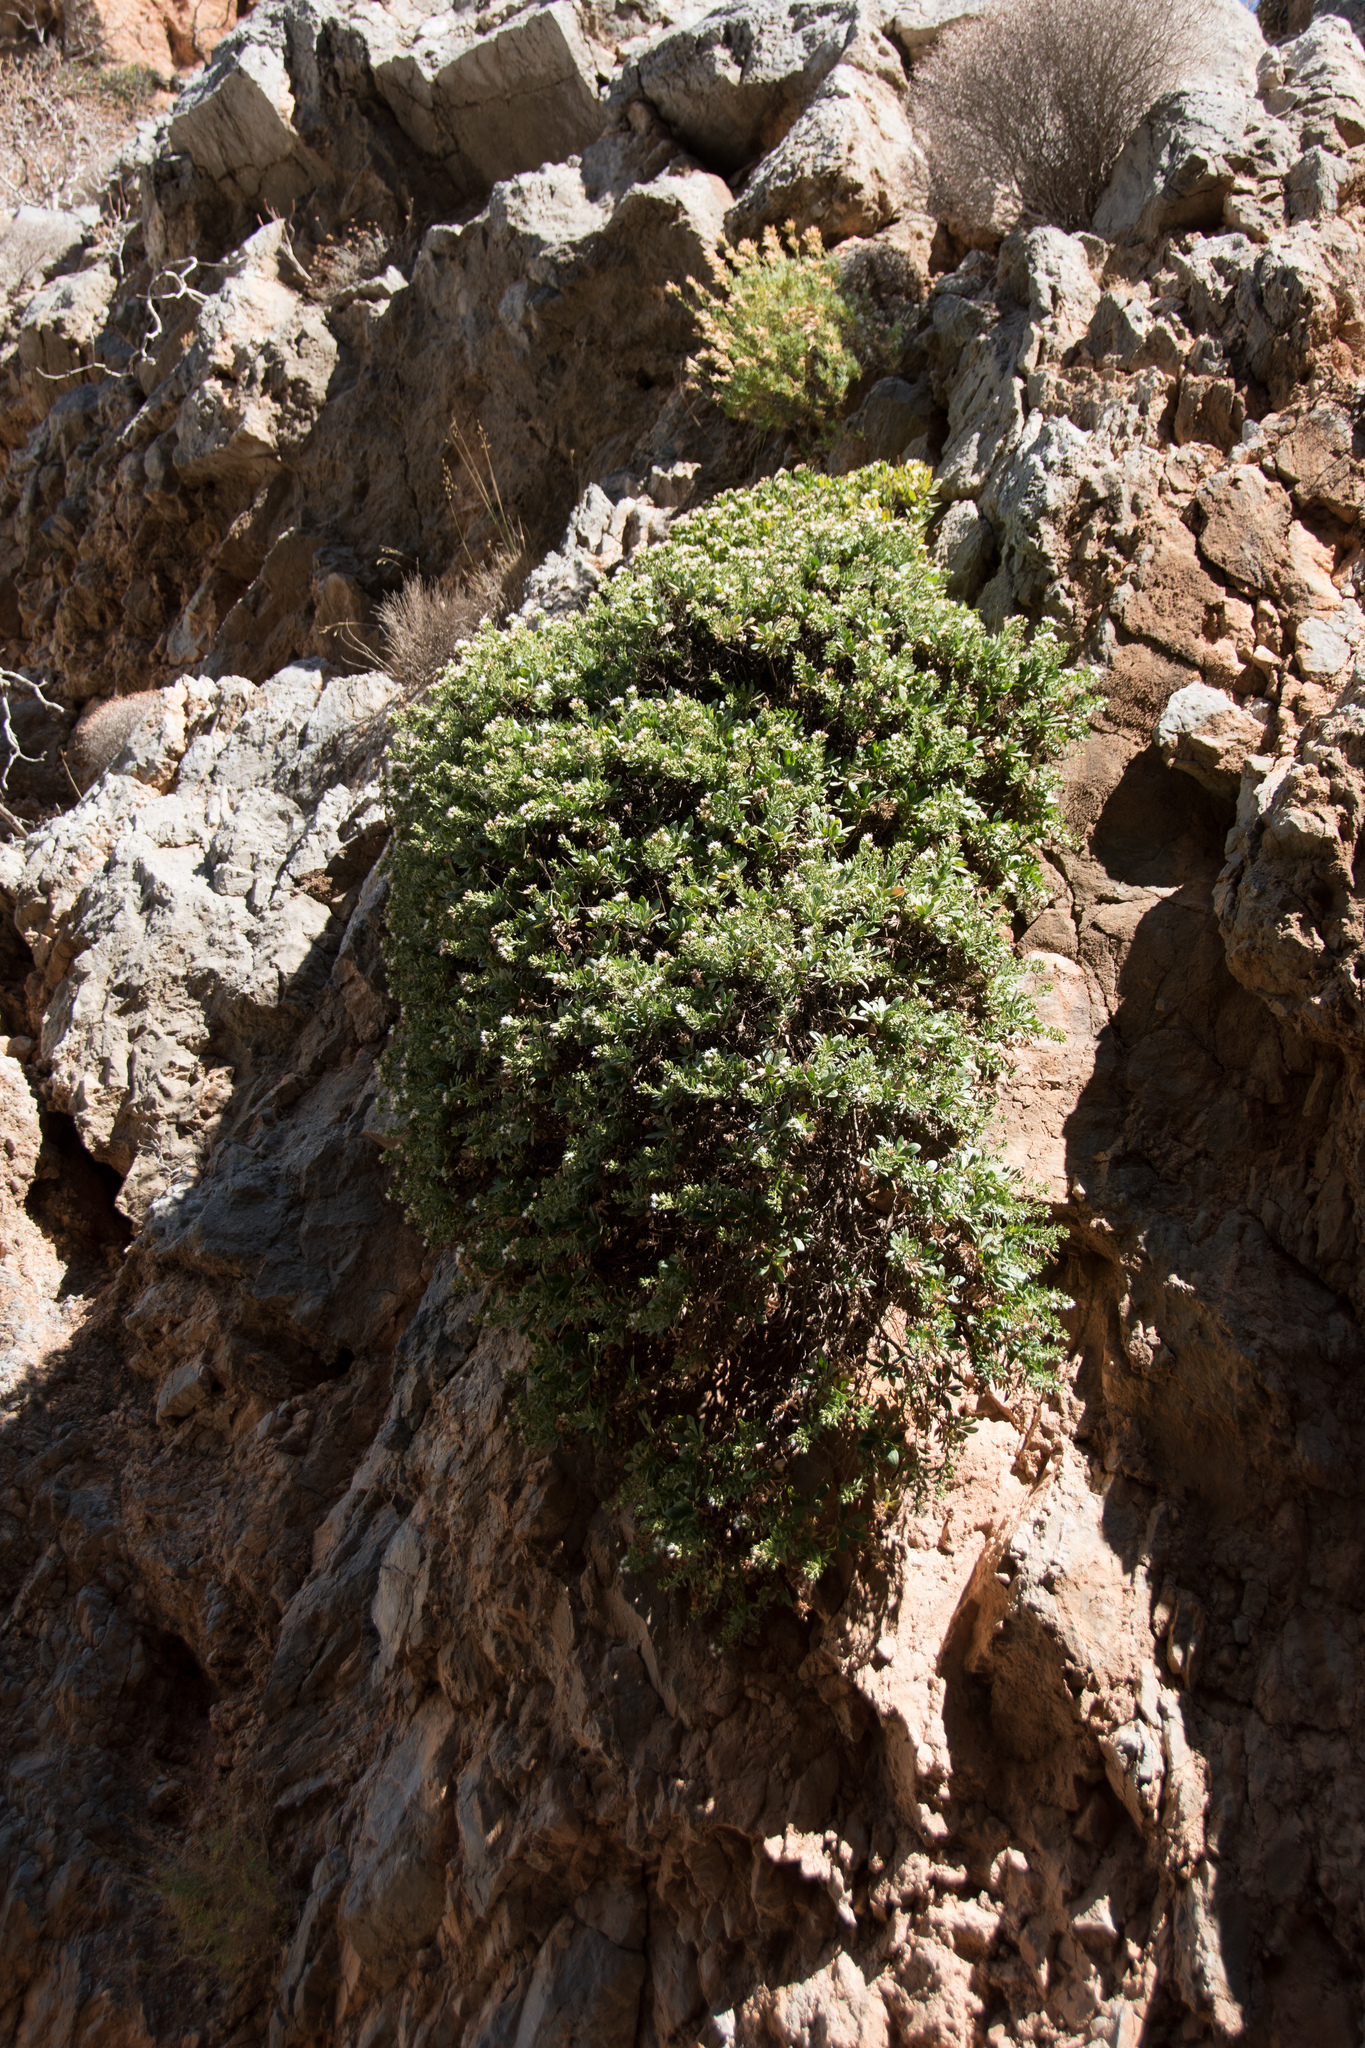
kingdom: Plantae
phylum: Tracheophyta
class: Magnoliopsida
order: Asterales
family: Asteraceae
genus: Hirtellina
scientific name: Hirtellina fruticosa
